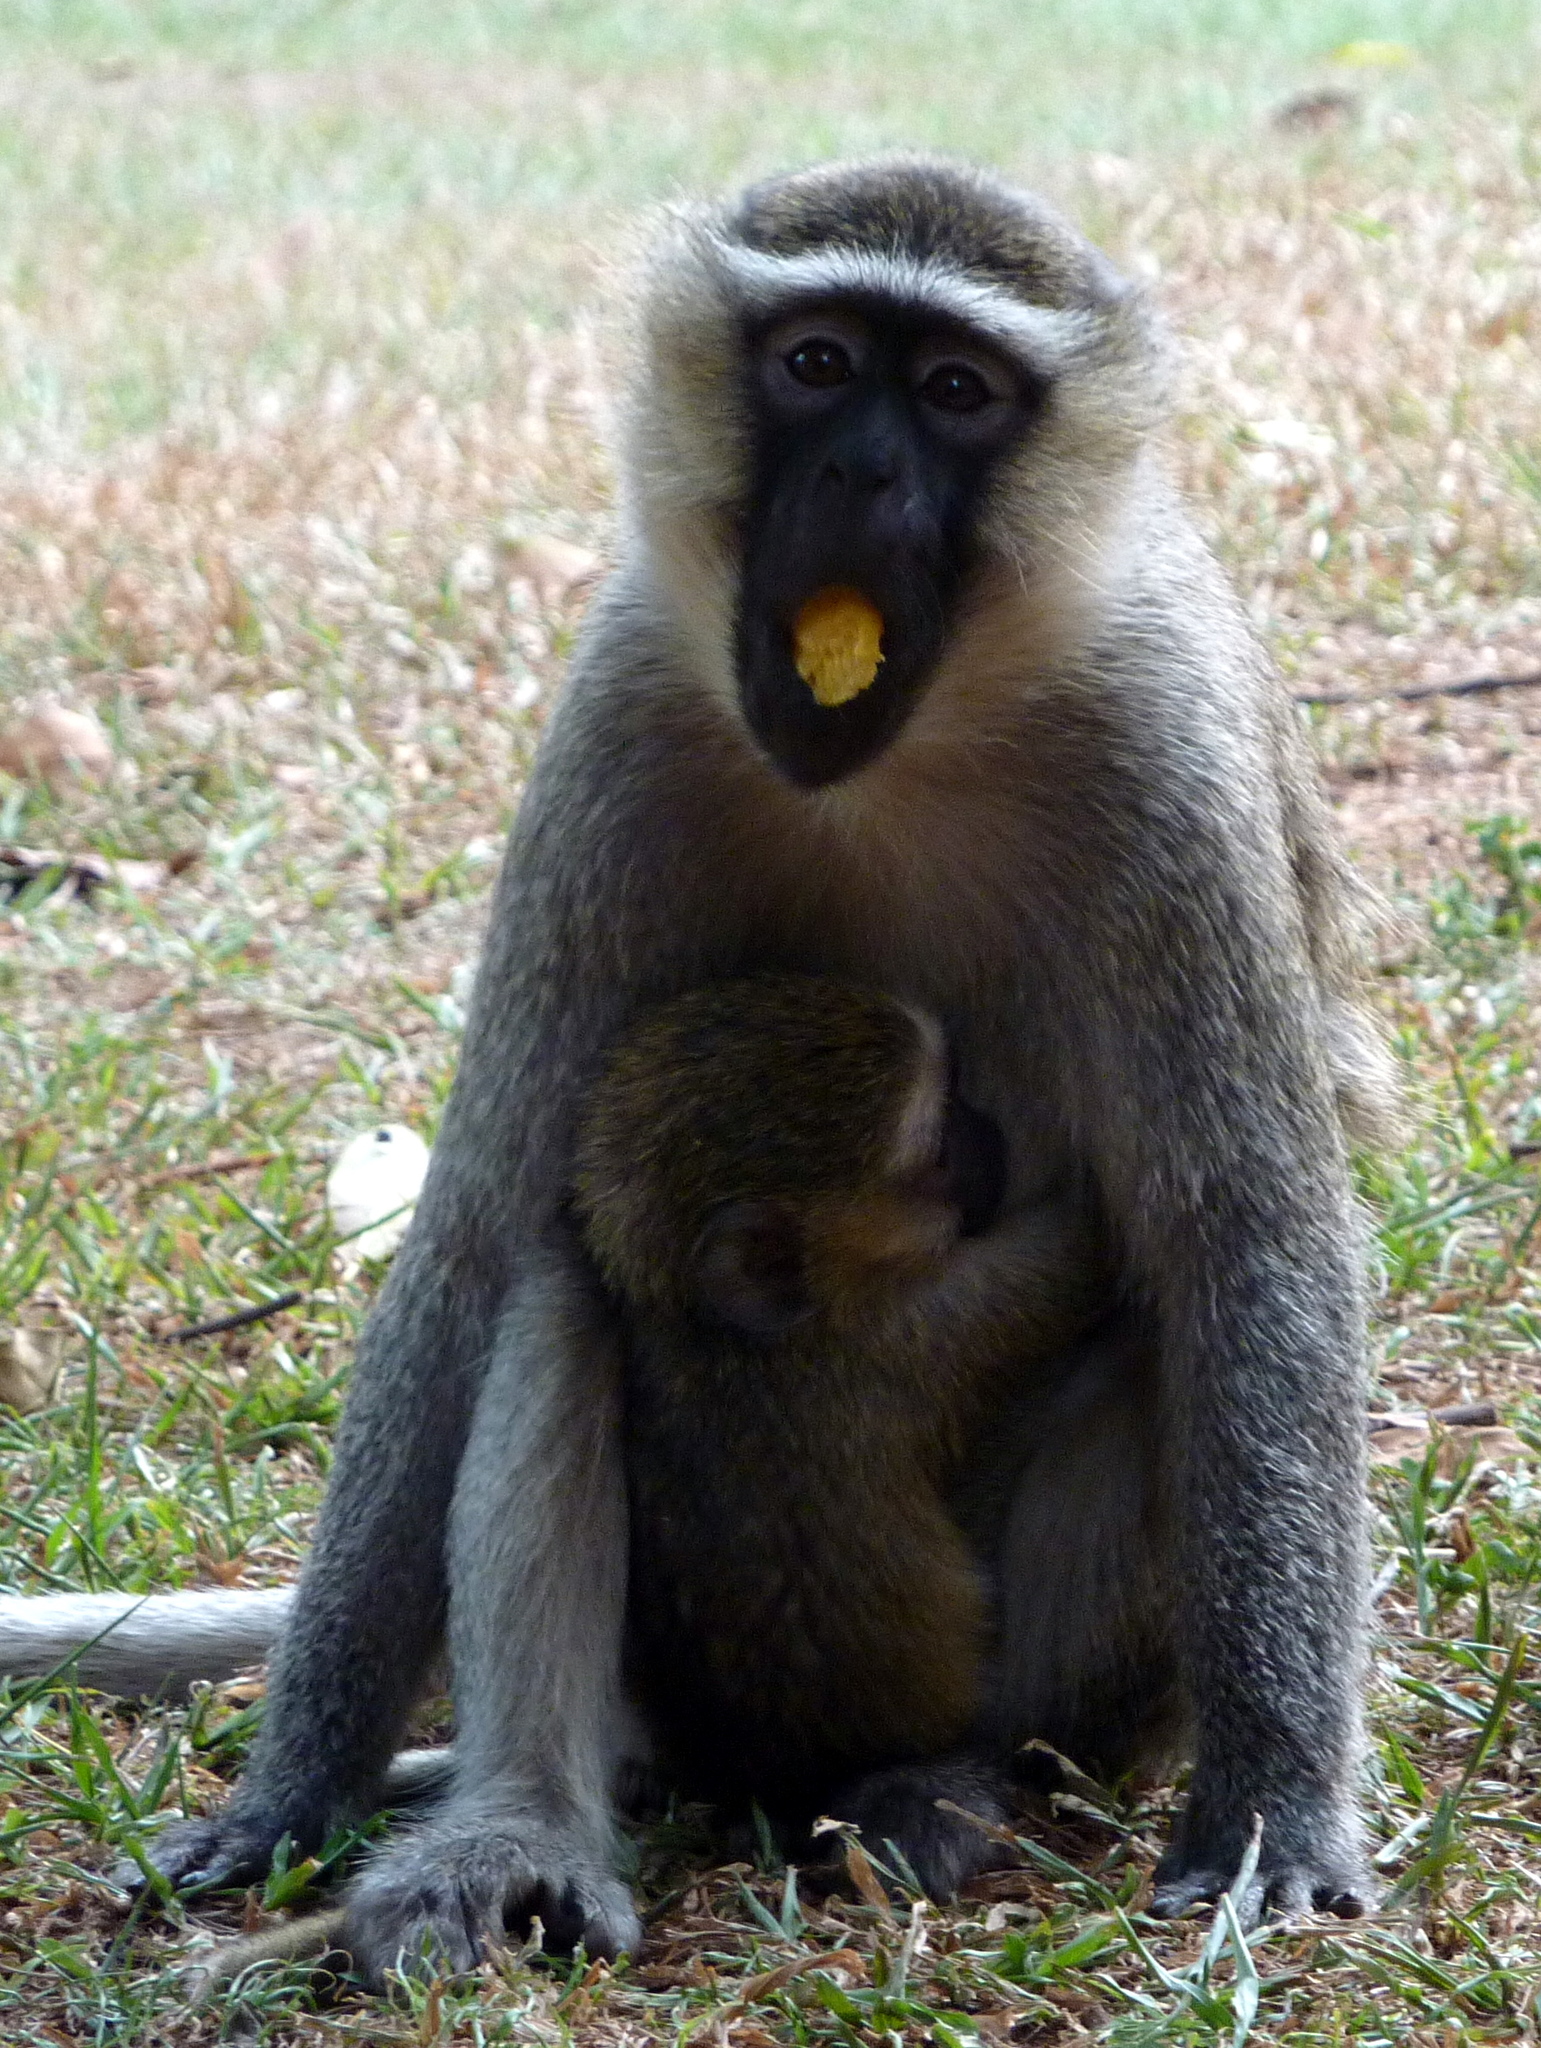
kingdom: Animalia
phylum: Chordata
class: Mammalia
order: Primates
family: Cercopithecidae
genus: Chlorocebus
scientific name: Chlorocebus tantalus
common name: Tantalus monkey
